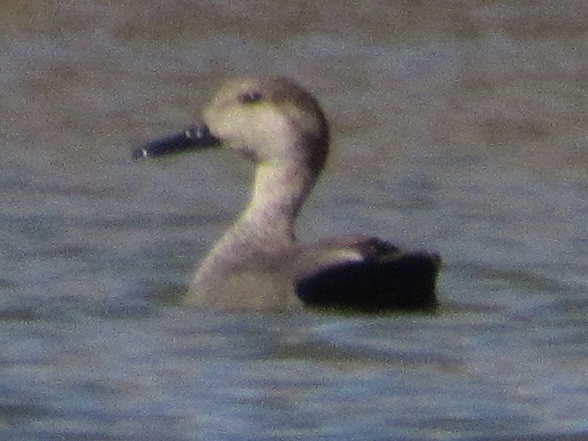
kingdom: Animalia
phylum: Chordata
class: Aves
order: Anseriformes
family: Anatidae
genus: Mareca
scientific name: Mareca strepera
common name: Gadwall
